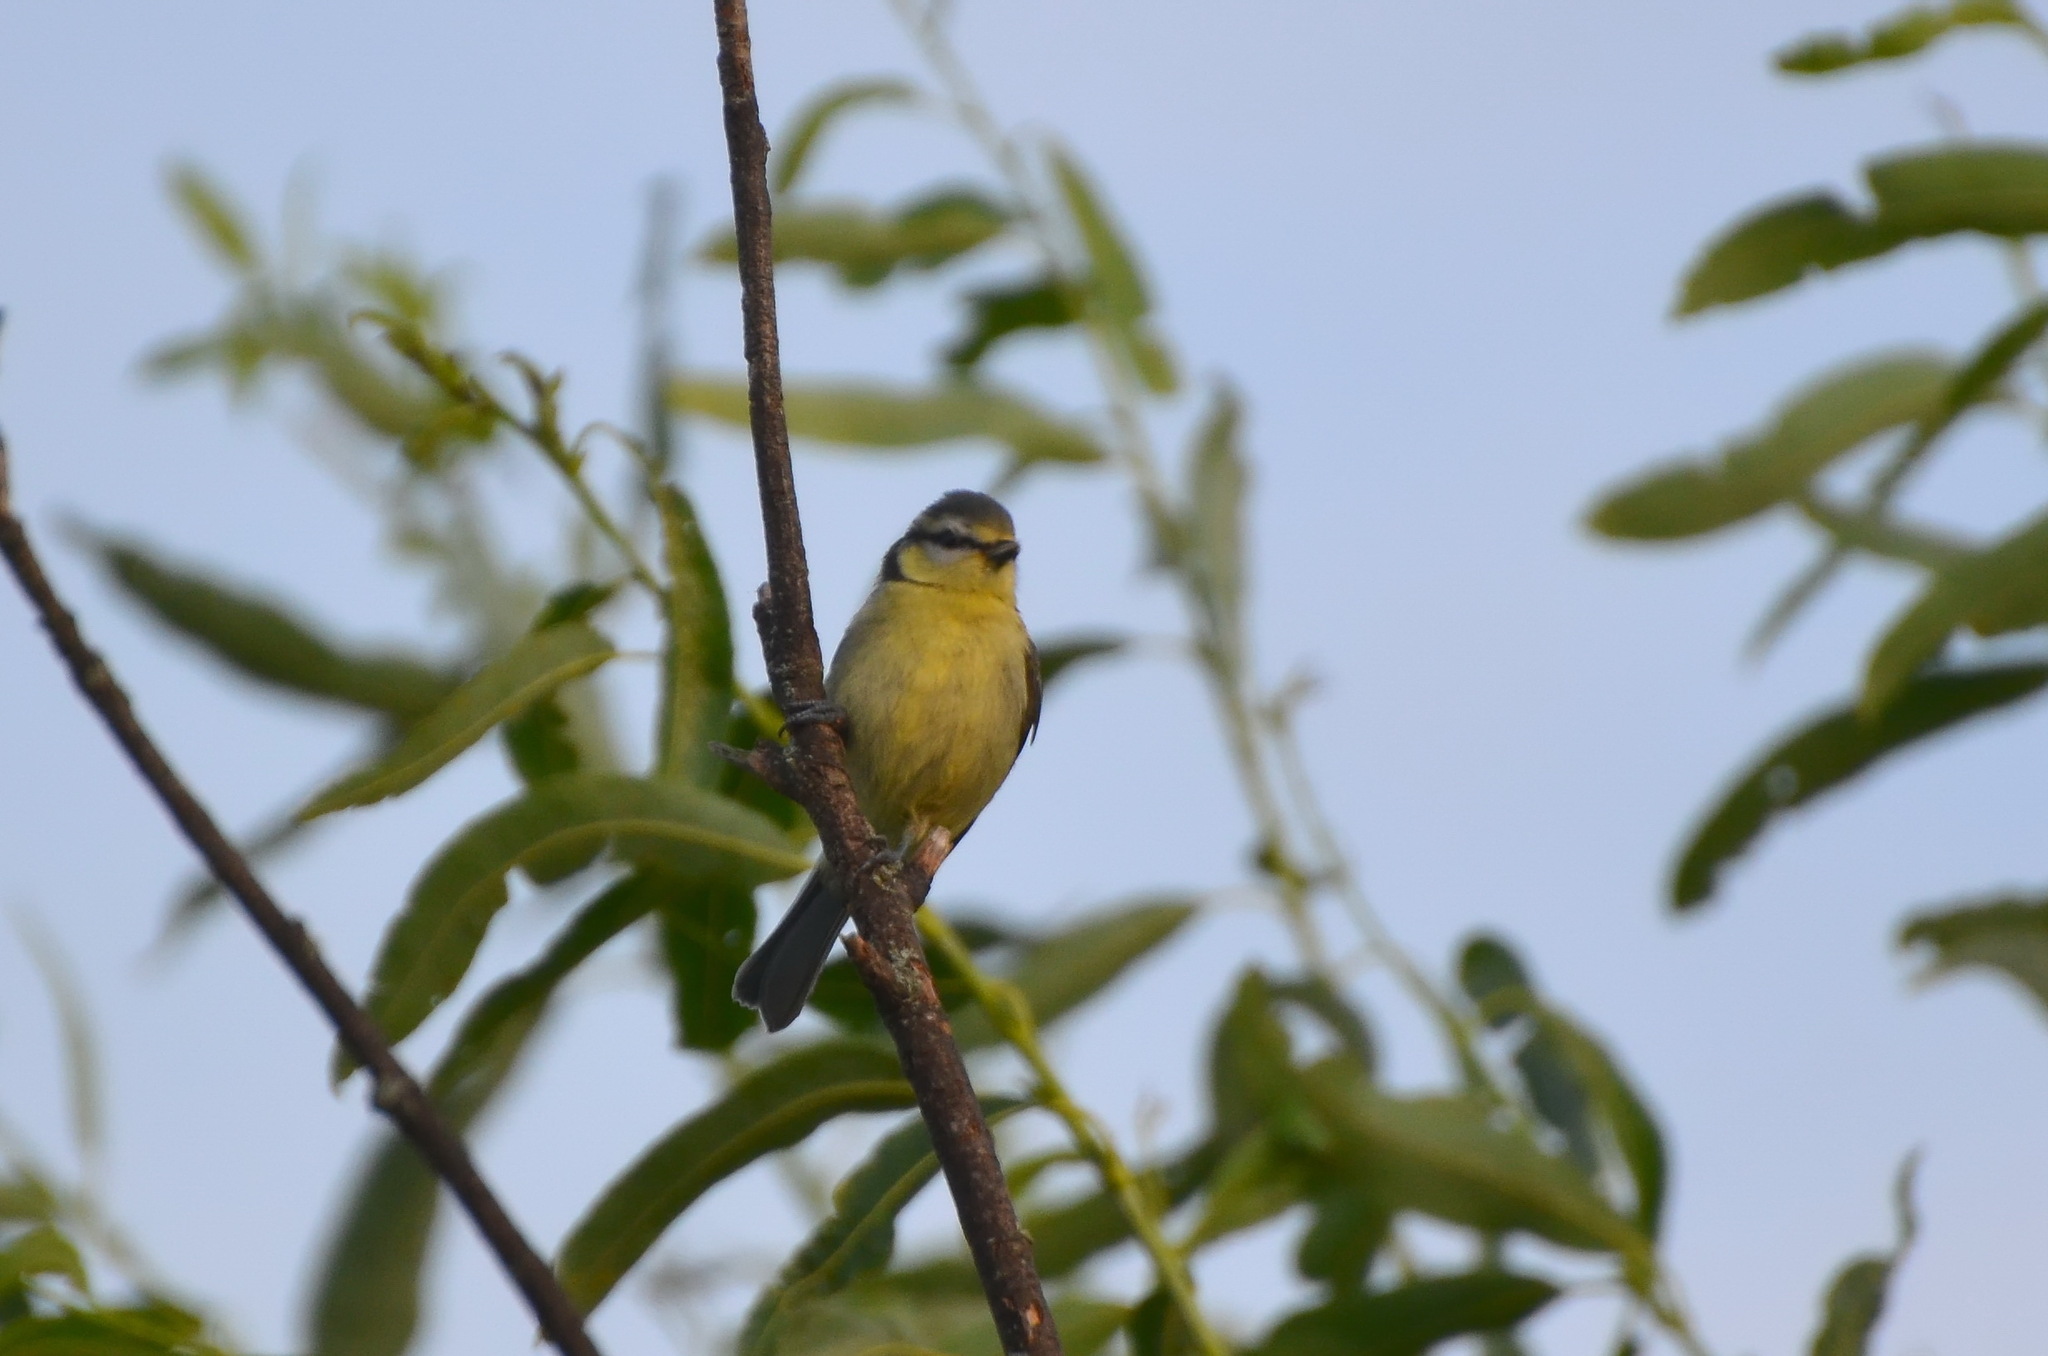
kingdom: Animalia
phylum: Chordata
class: Aves
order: Passeriformes
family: Paridae
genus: Cyanistes
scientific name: Cyanistes caeruleus
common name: Eurasian blue tit
